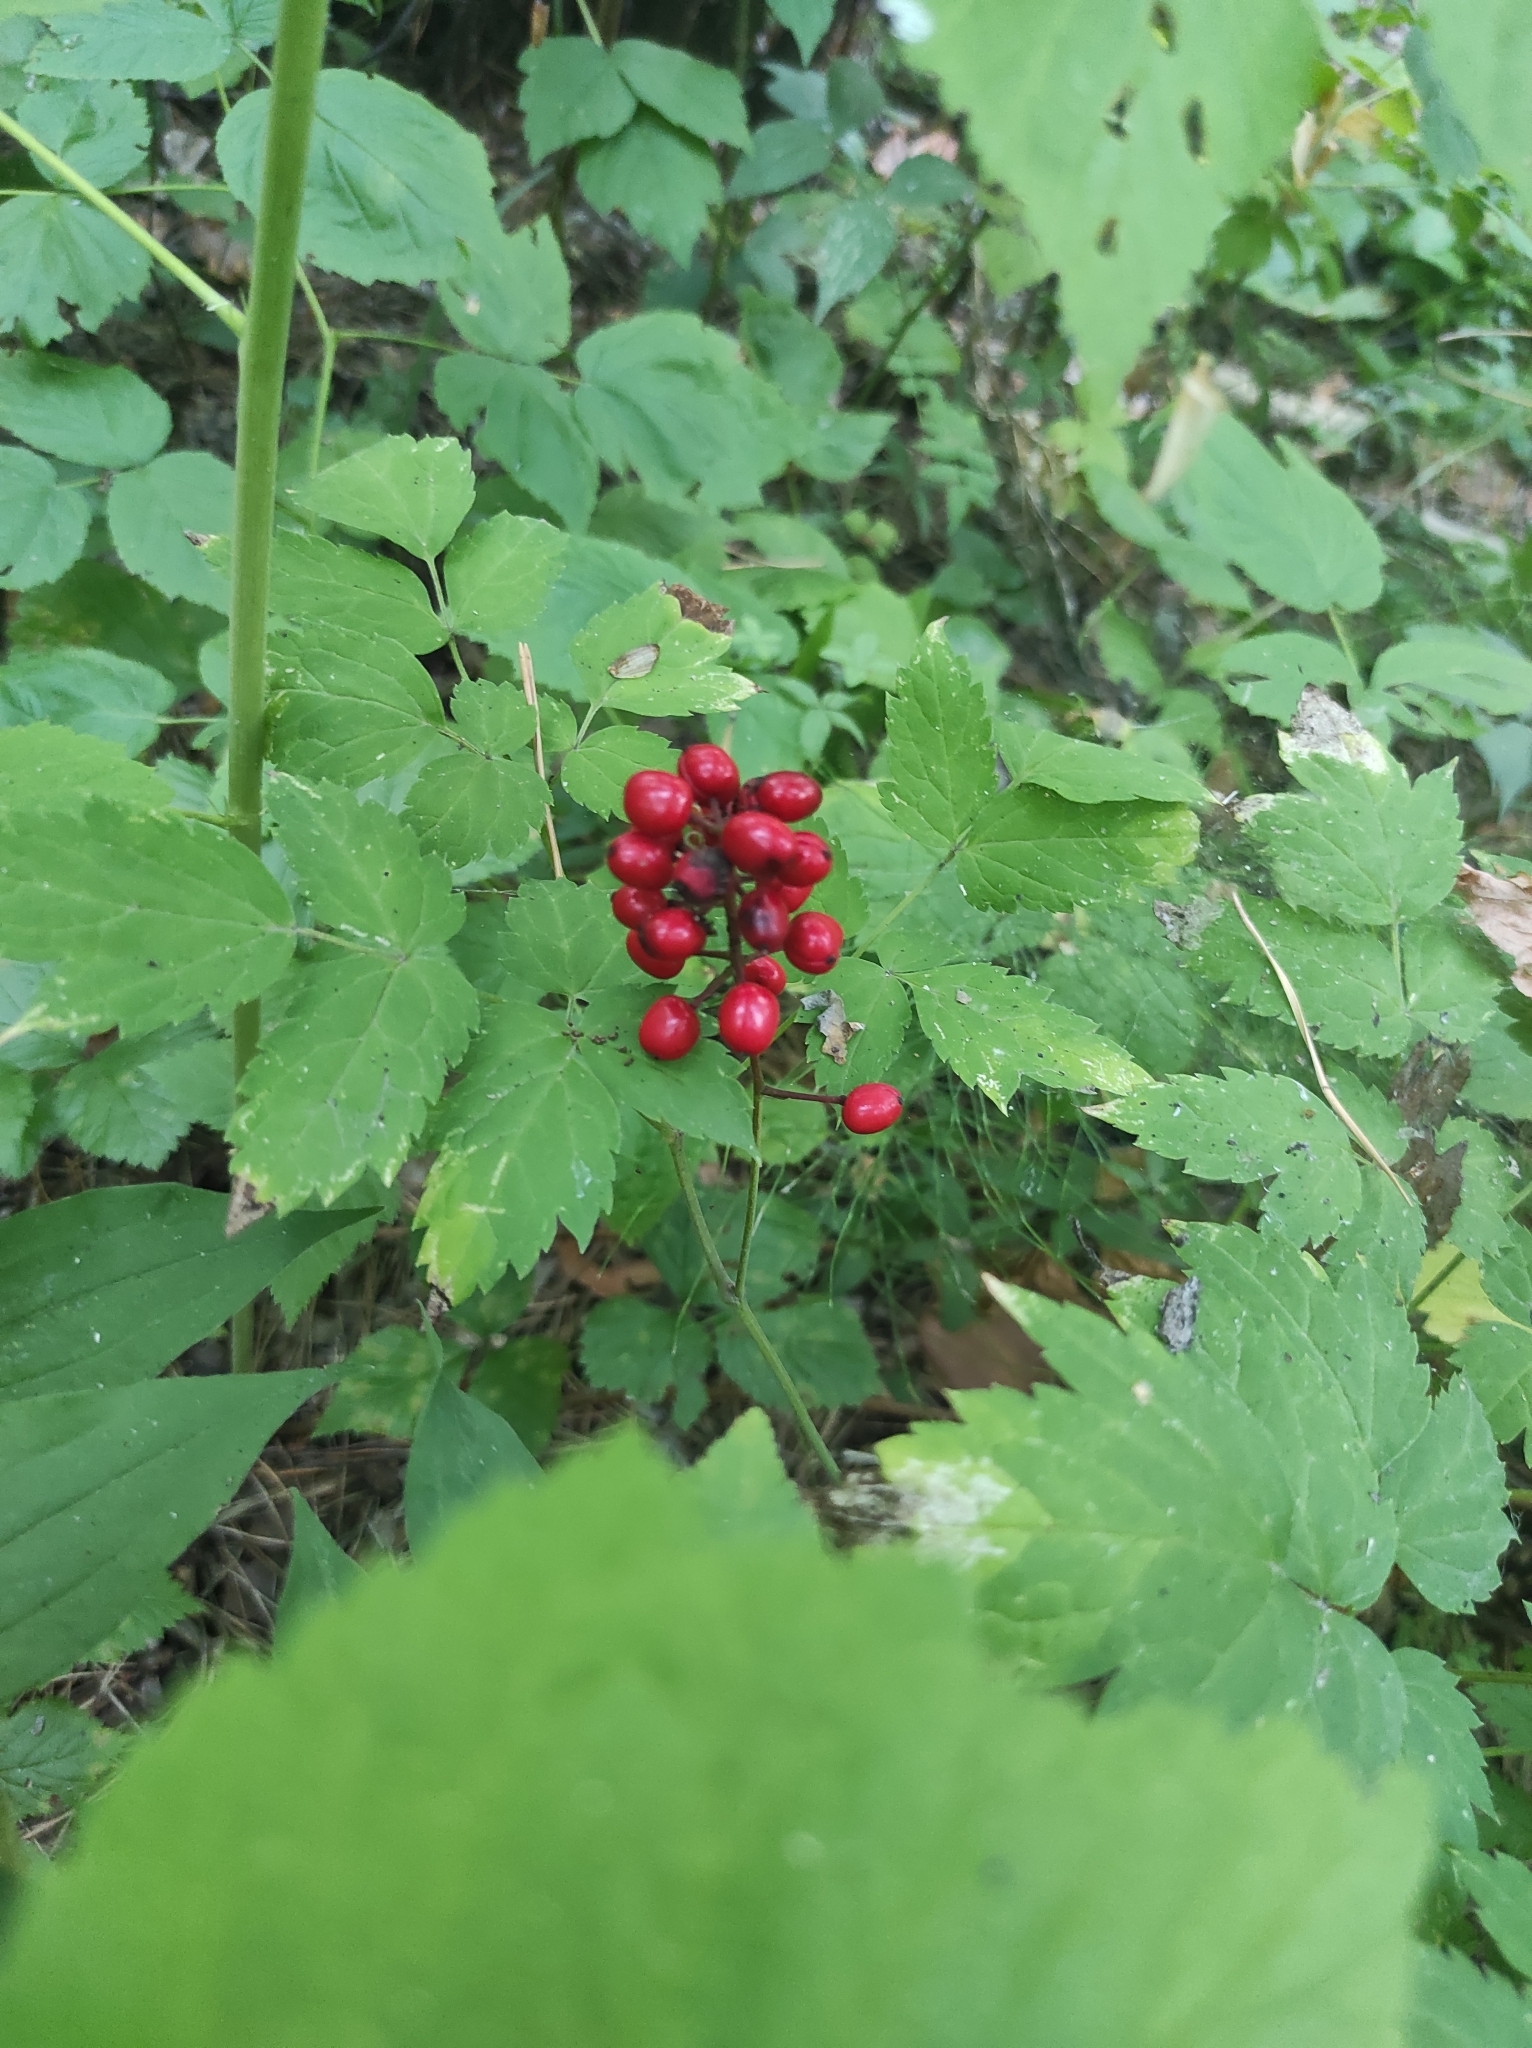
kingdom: Plantae
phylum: Tracheophyta
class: Magnoliopsida
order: Ranunculales
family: Ranunculaceae
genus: Actaea
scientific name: Actaea erythrocarpa
